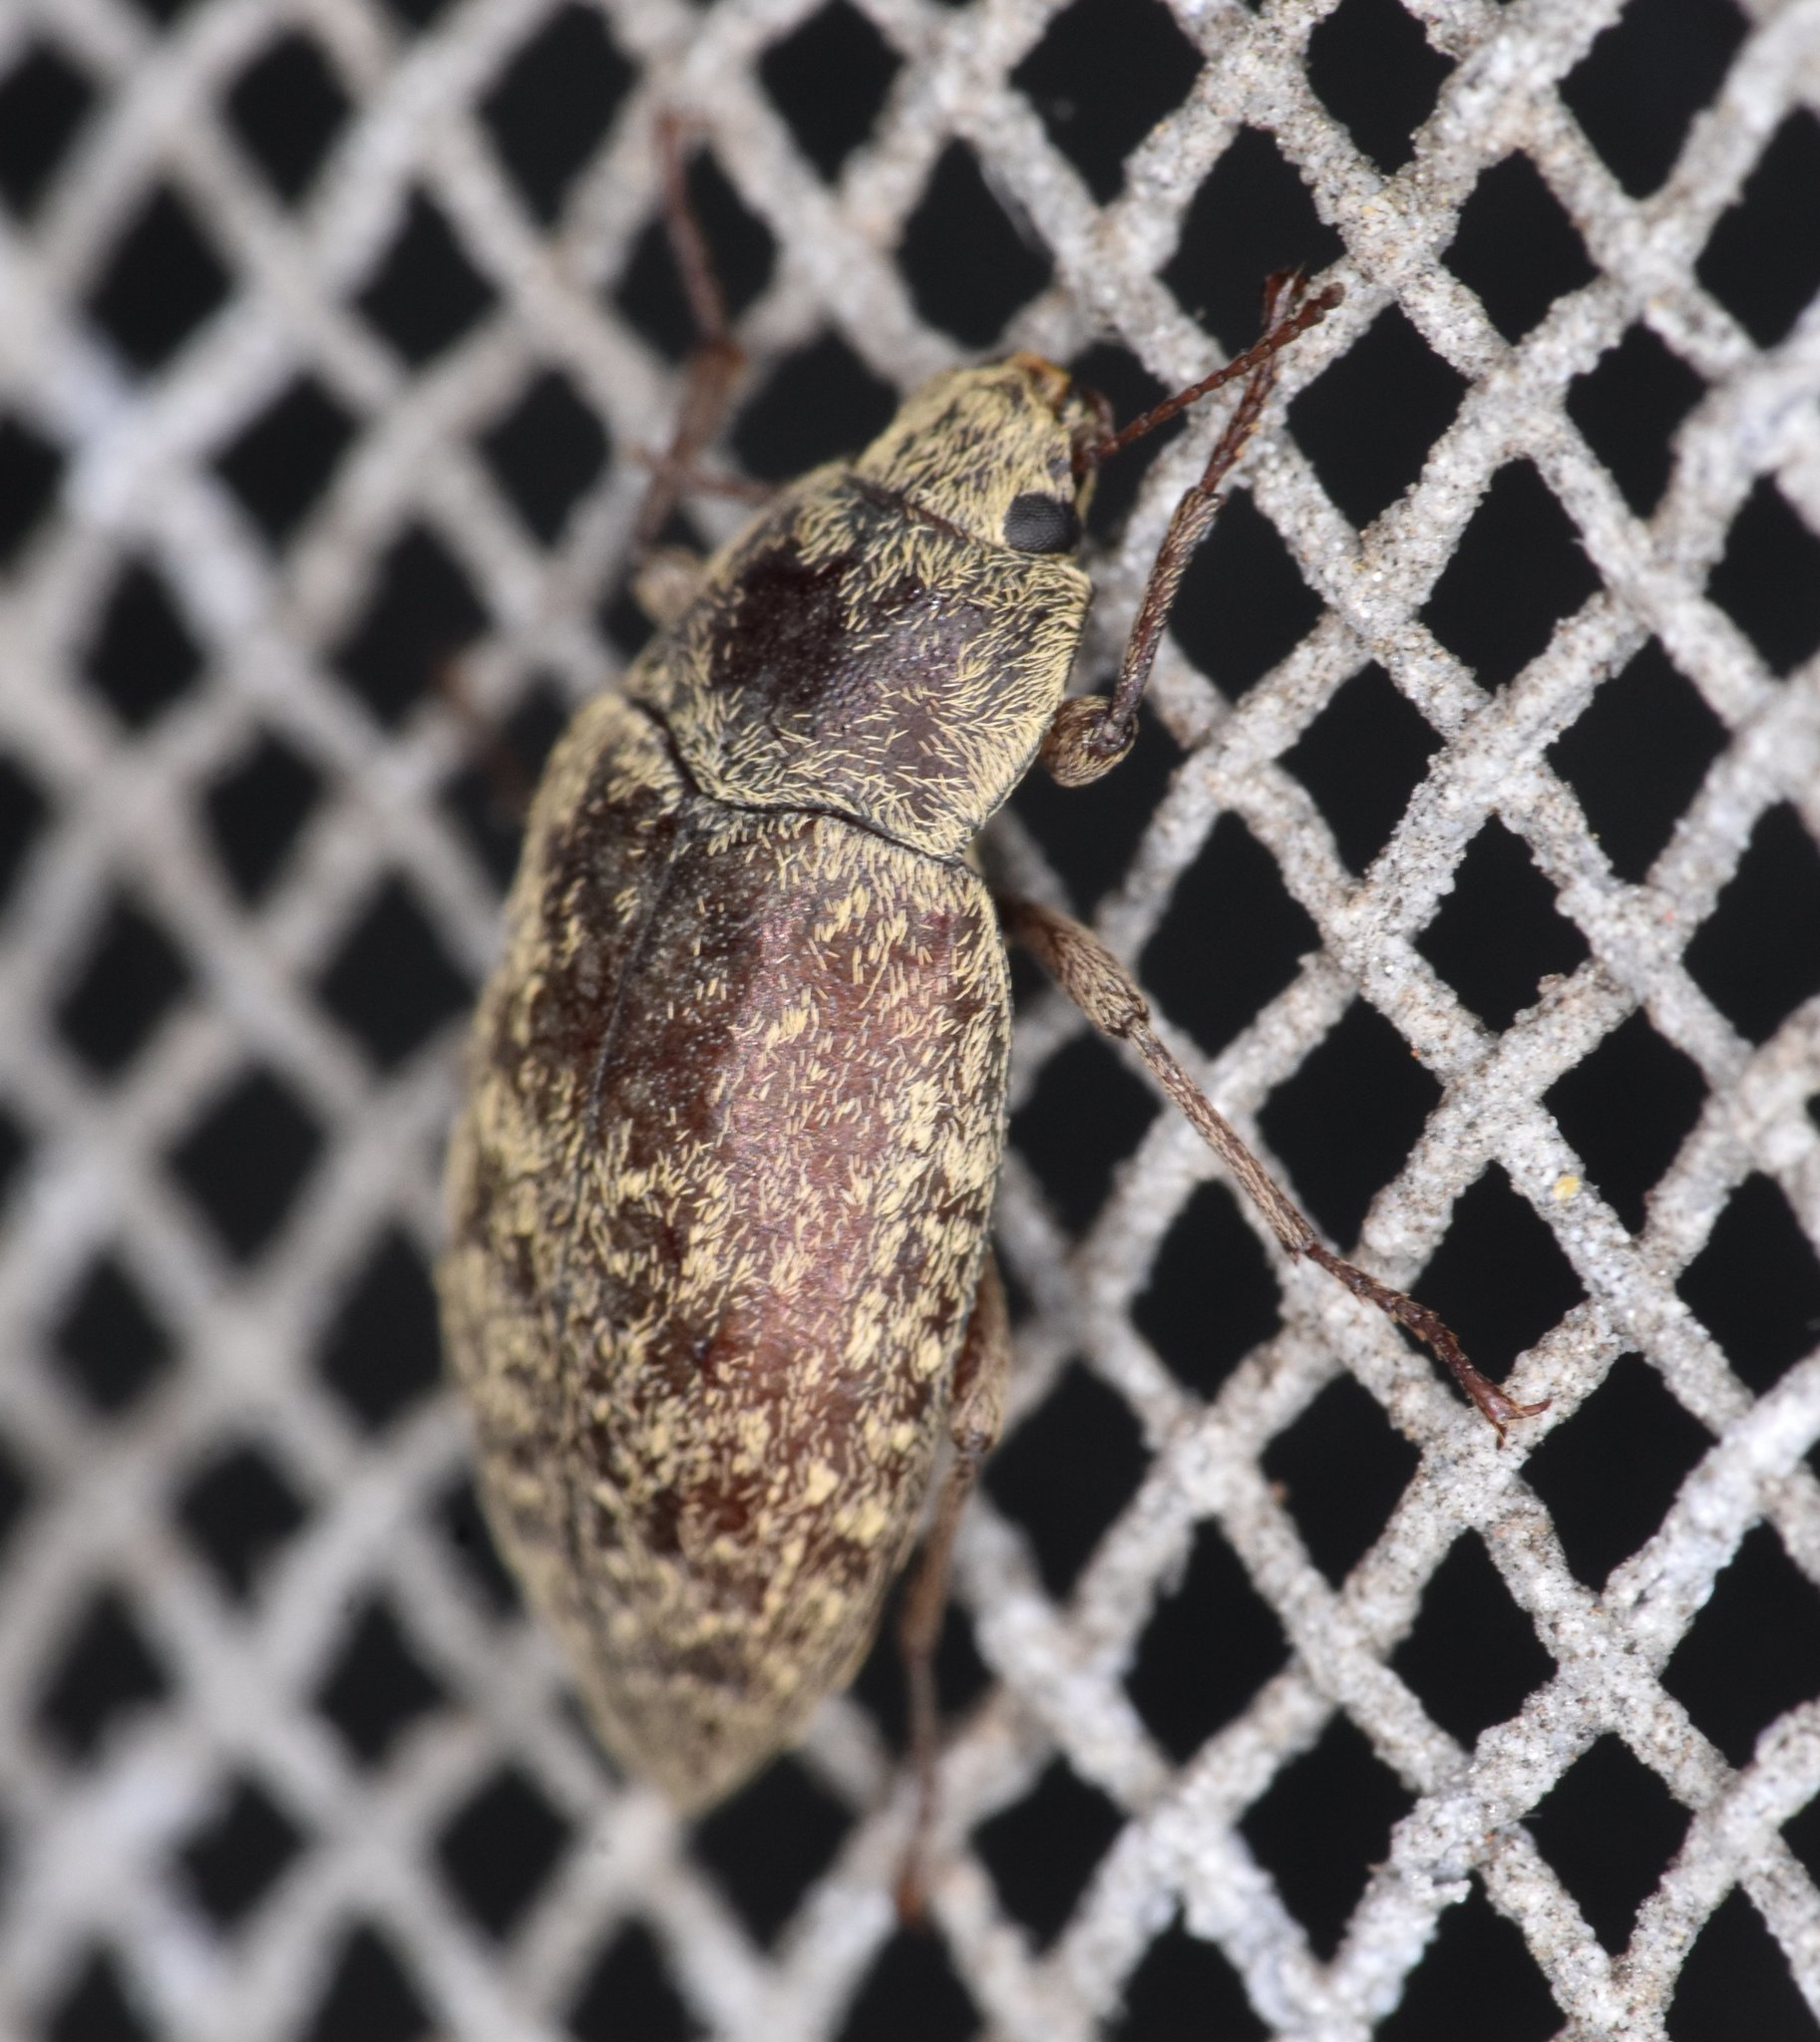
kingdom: Animalia
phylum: Arthropoda
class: Insecta
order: Coleoptera
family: Tenebrionidae
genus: Epitragodes
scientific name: Epitragodes tomentosus
